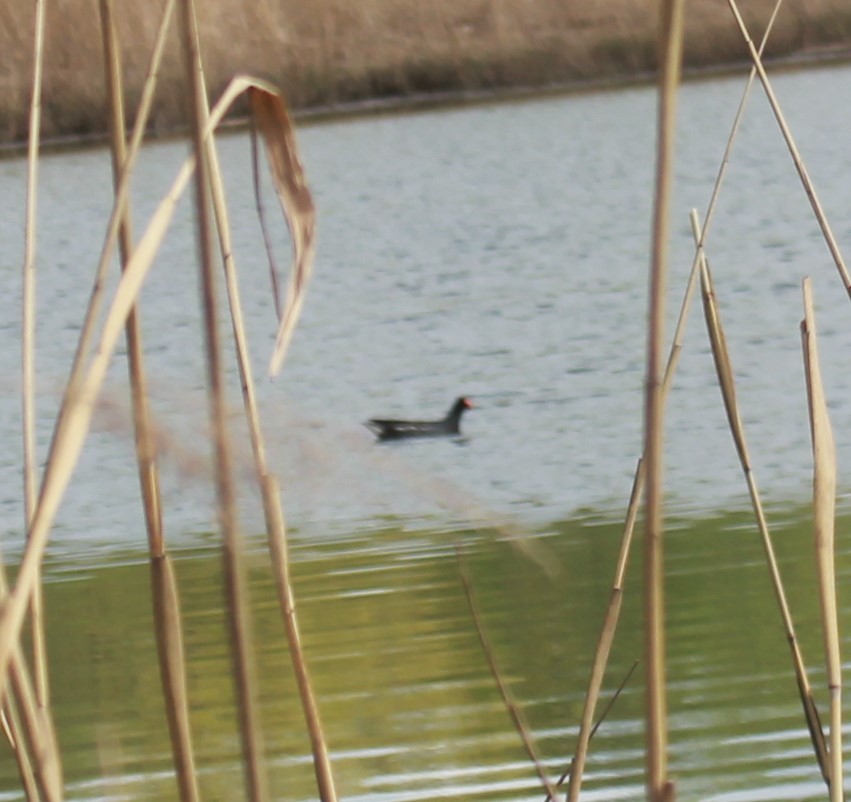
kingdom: Animalia
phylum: Chordata
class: Aves
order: Gruiformes
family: Rallidae
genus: Gallinula
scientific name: Gallinula chloropus
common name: Common moorhen
